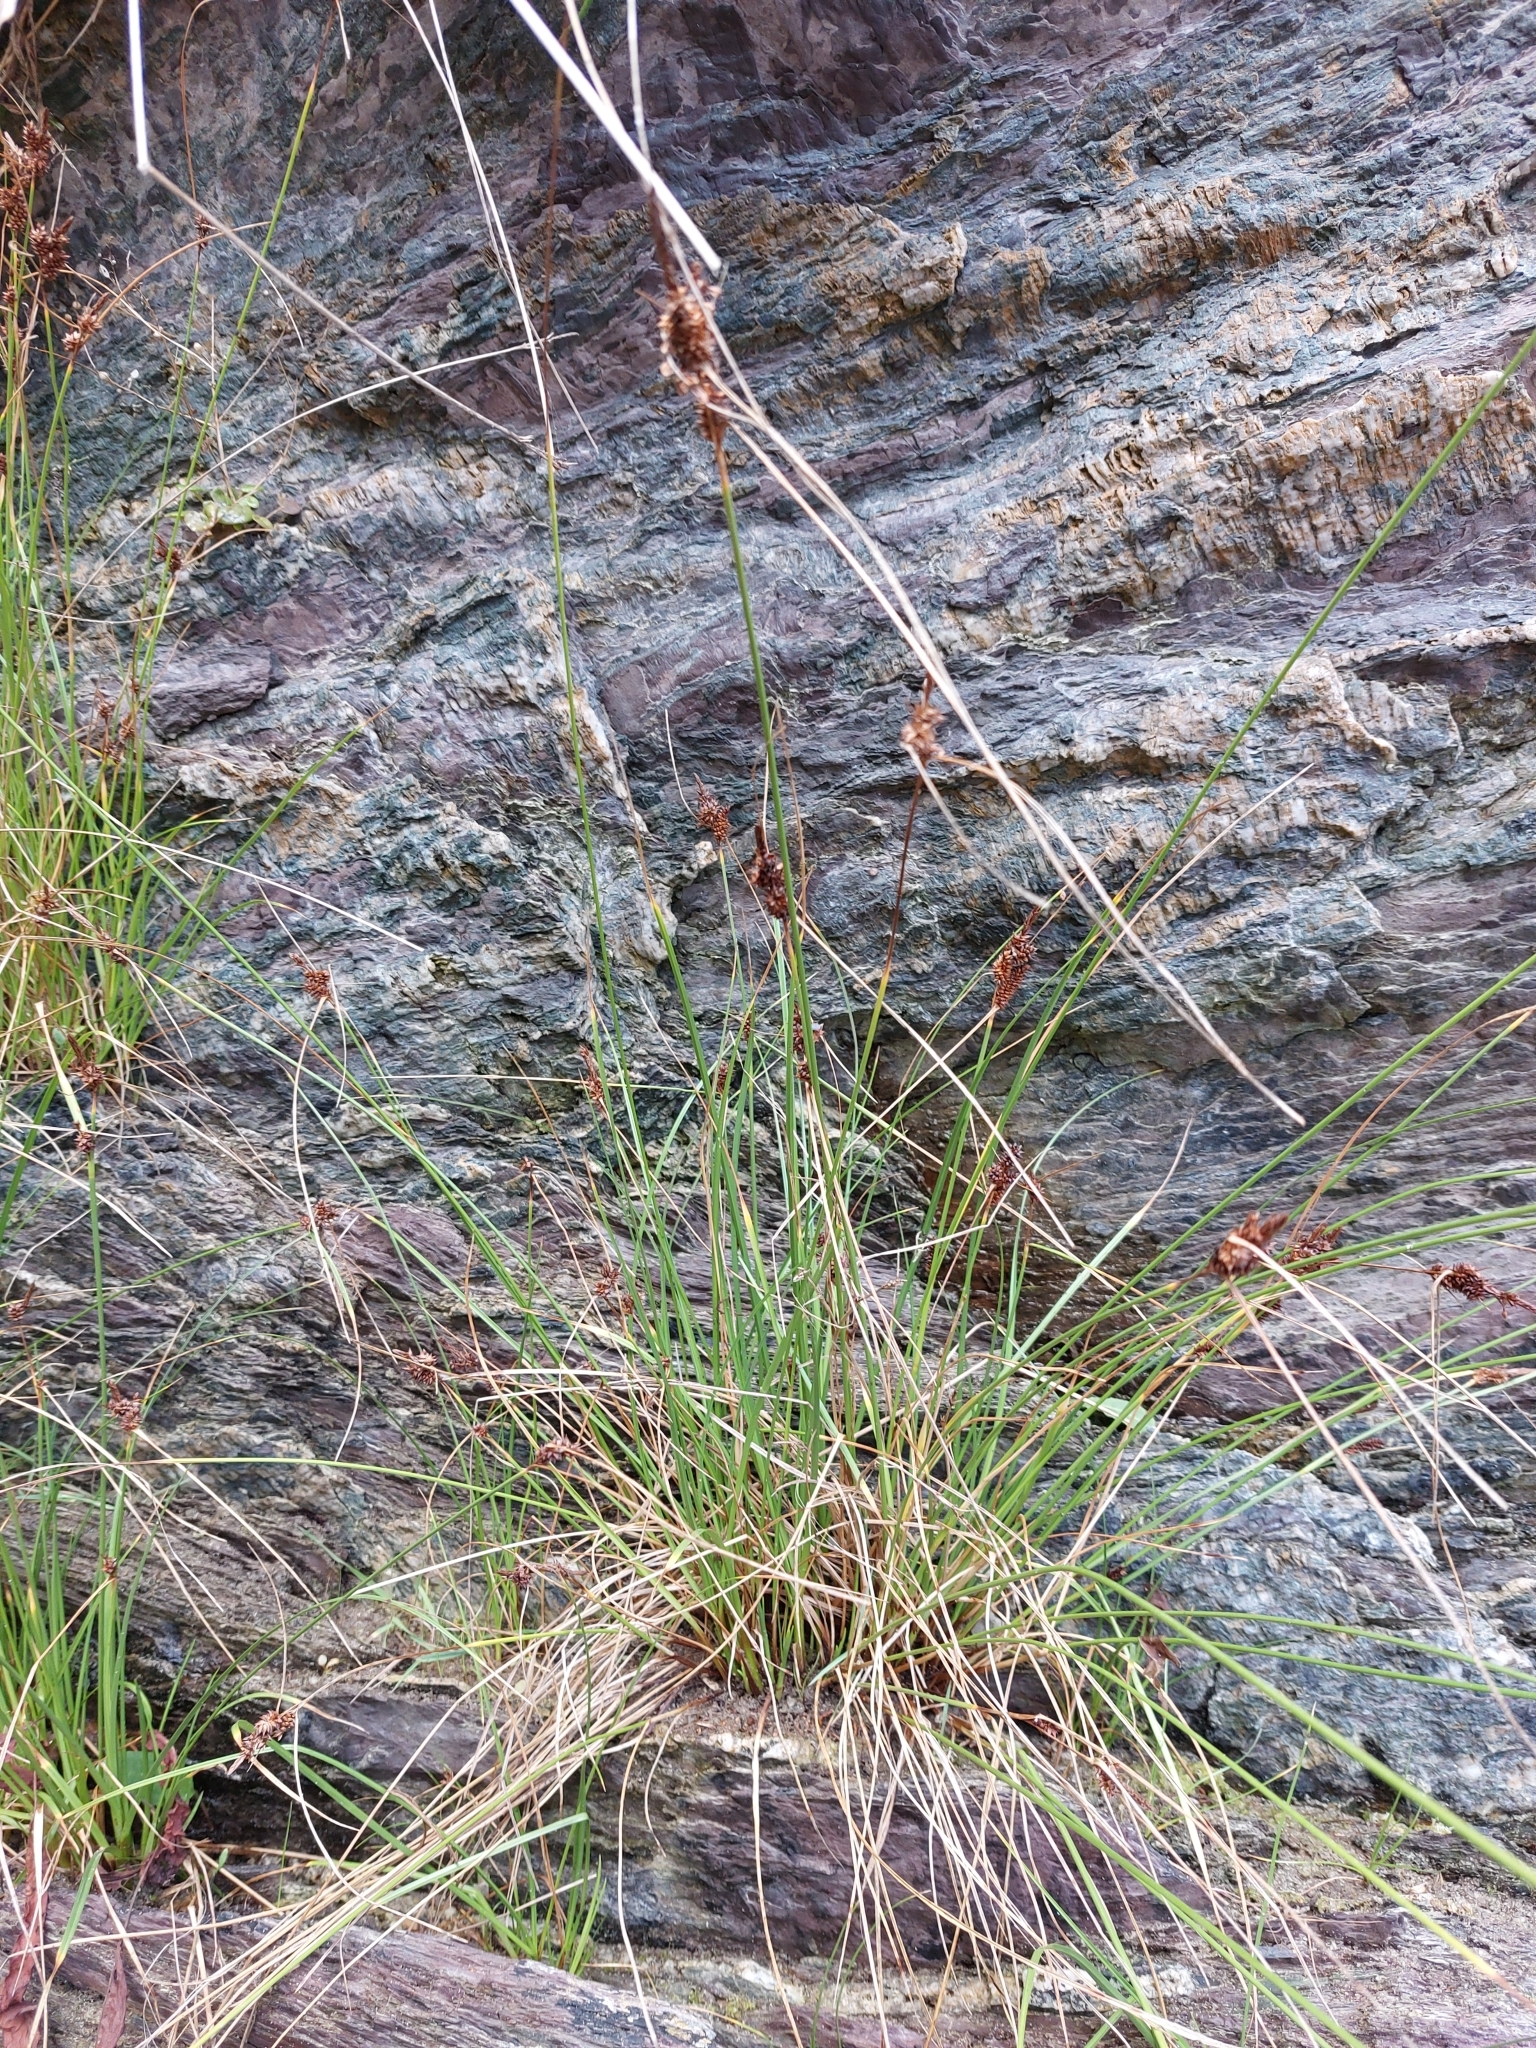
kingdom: Plantae
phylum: Tracheophyta
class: Liliopsida
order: Poales
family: Cyperaceae
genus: Carex
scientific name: Carex extensa
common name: Long-bracted sedge
